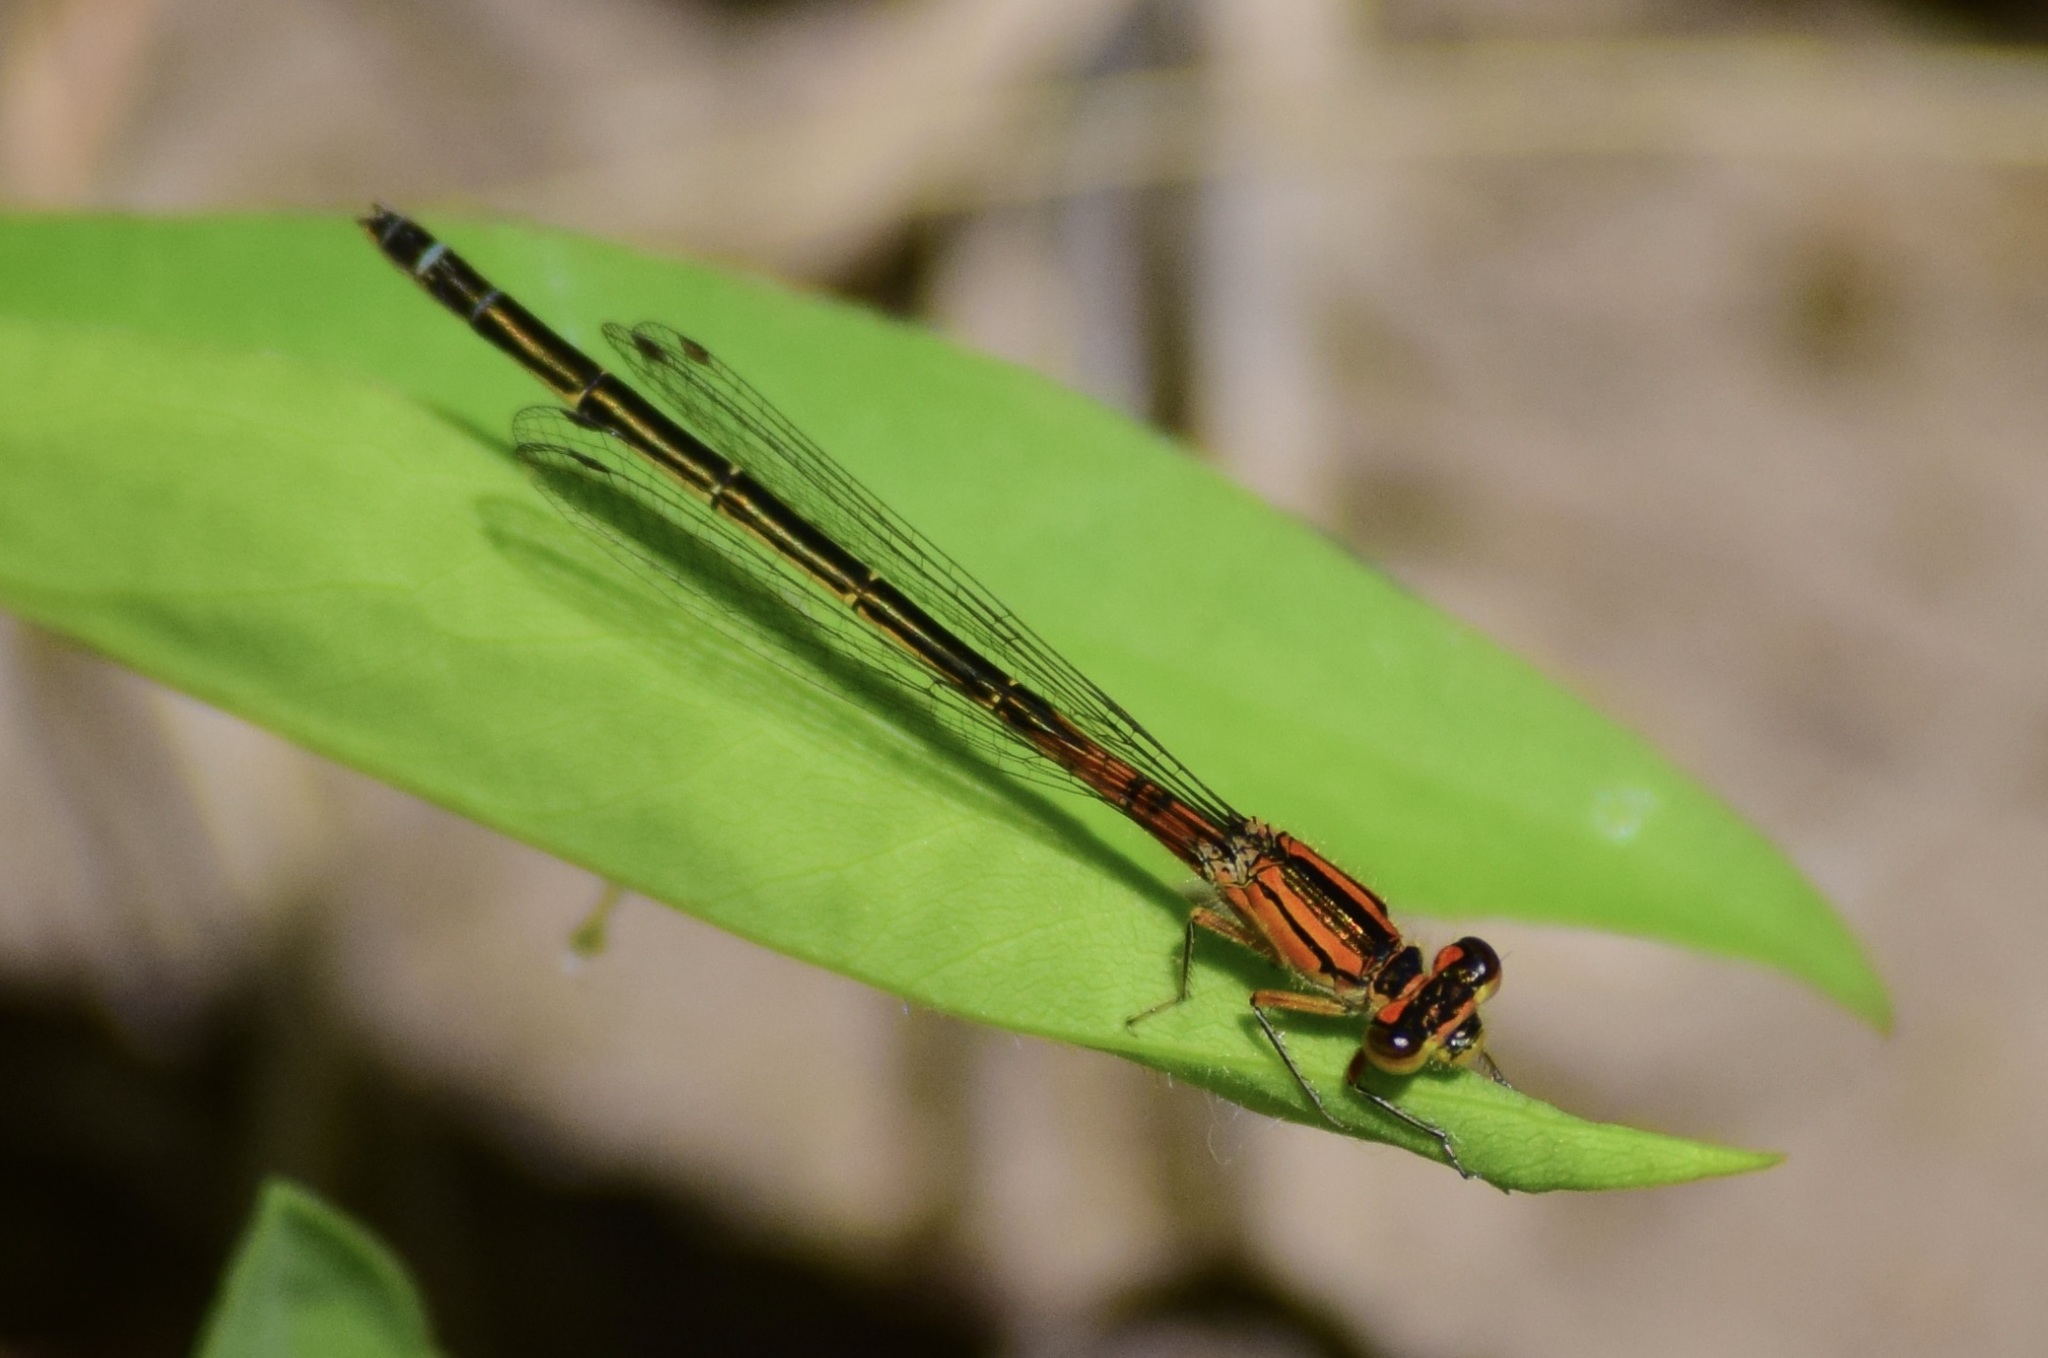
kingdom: Animalia
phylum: Arthropoda
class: Insecta
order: Odonata
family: Coenagrionidae
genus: Ischnura
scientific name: Ischnura verticalis
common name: Eastern forktail
